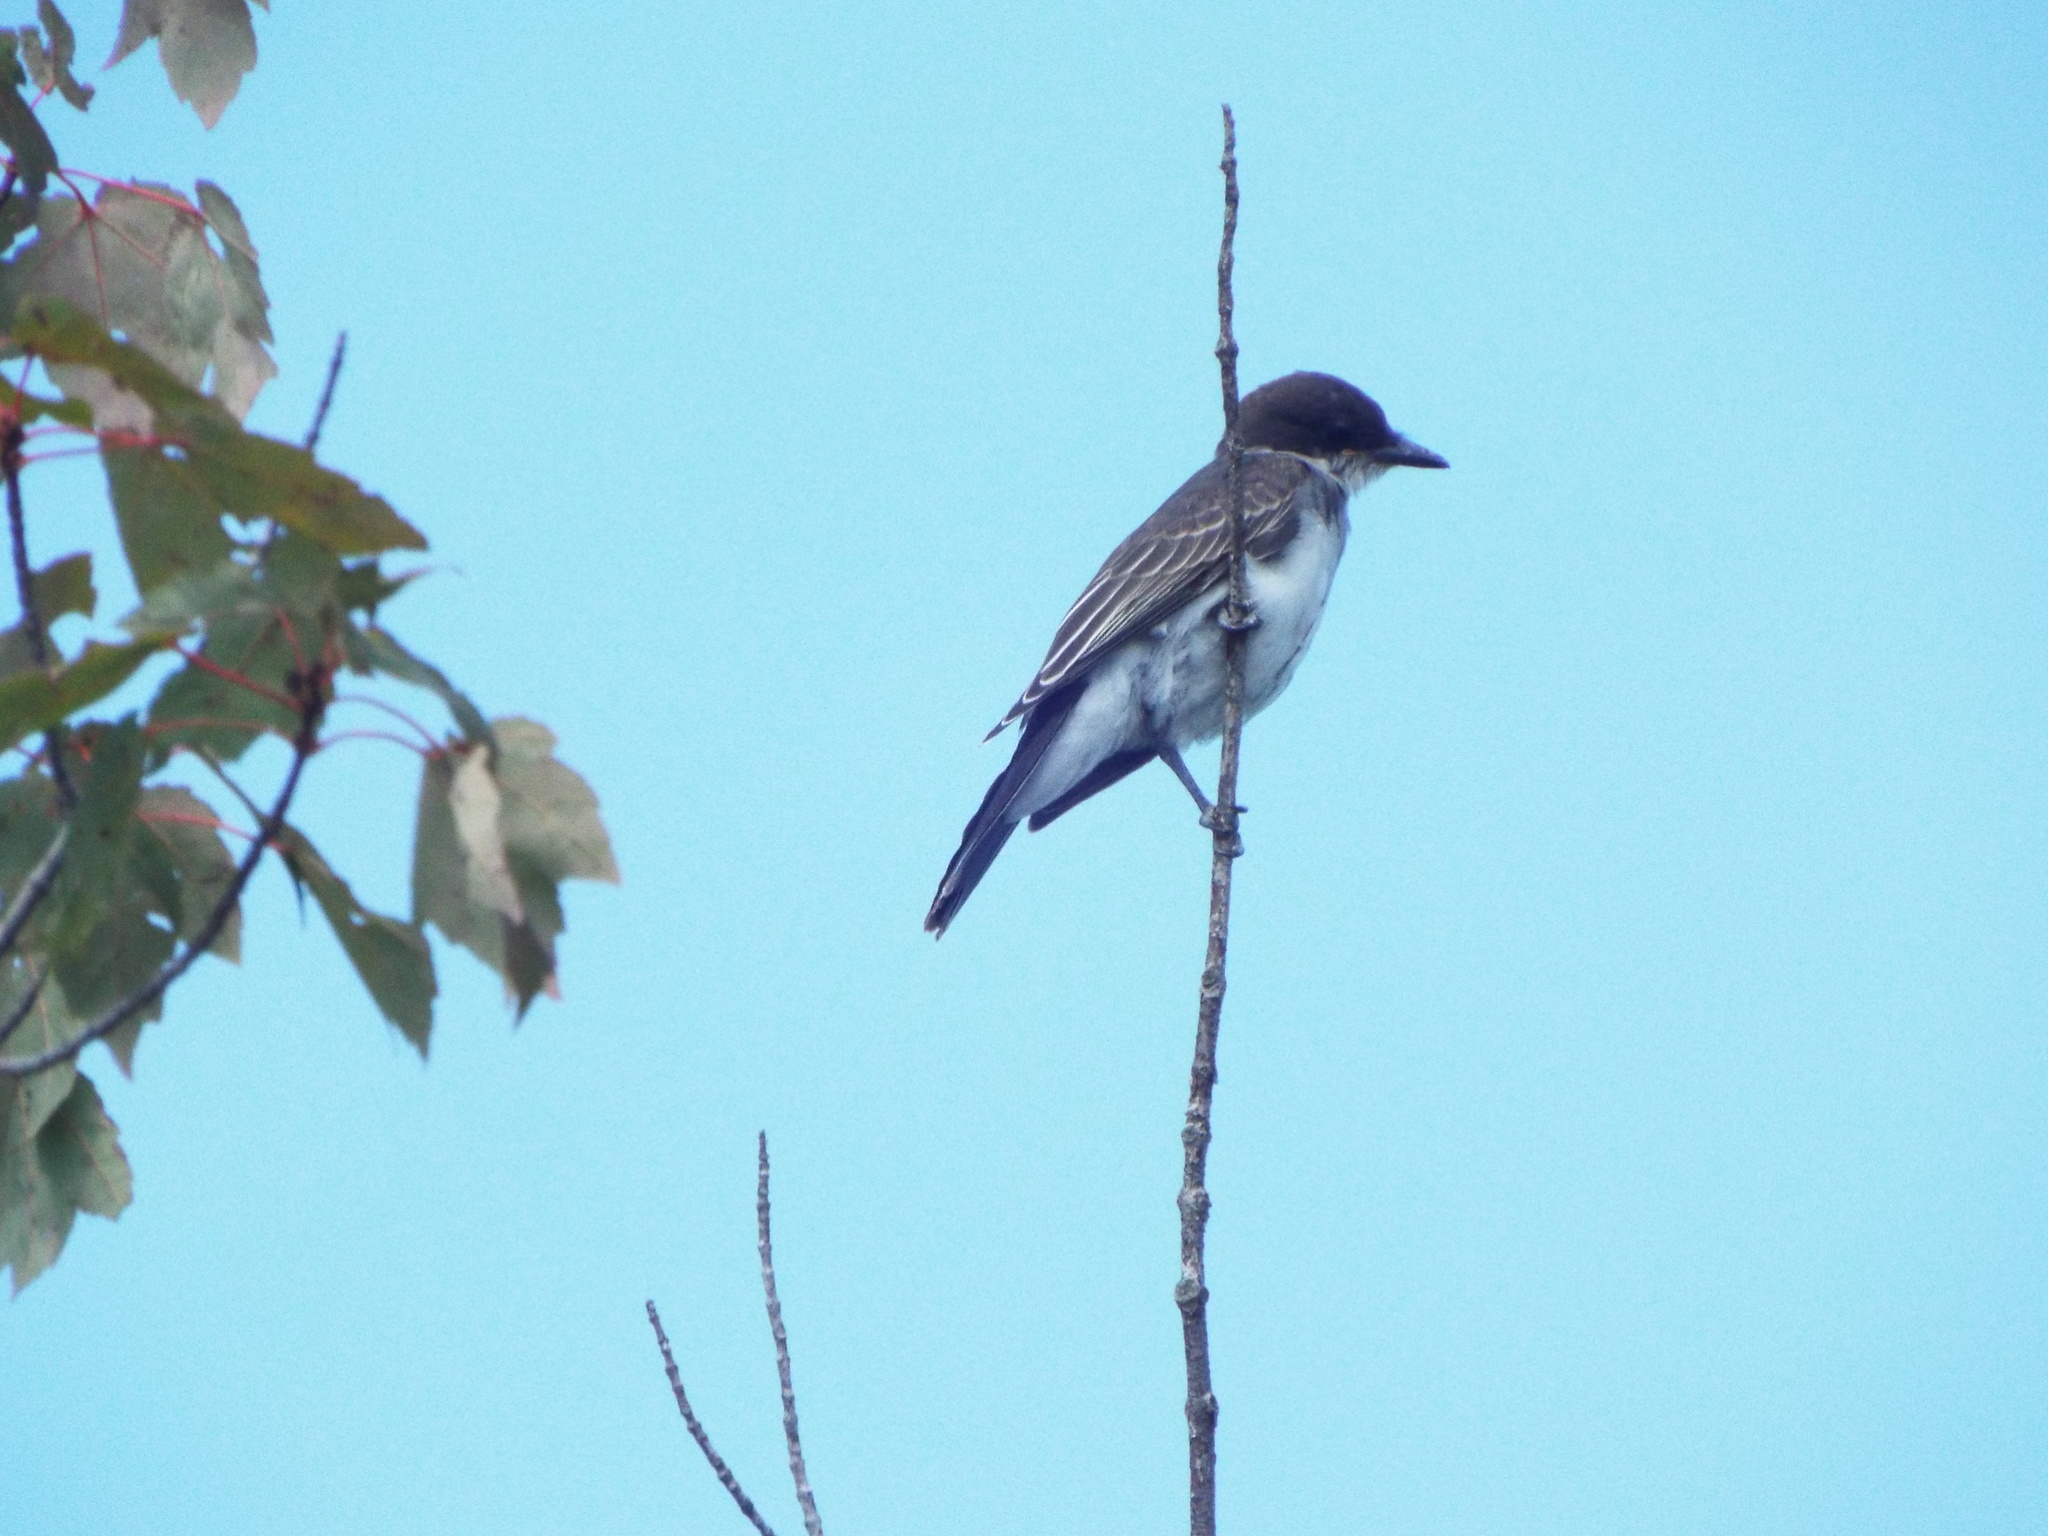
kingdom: Animalia
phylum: Chordata
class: Aves
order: Passeriformes
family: Tyrannidae
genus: Tyrannus
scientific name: Tyrannus tyrannus
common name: Eastern kingbird
